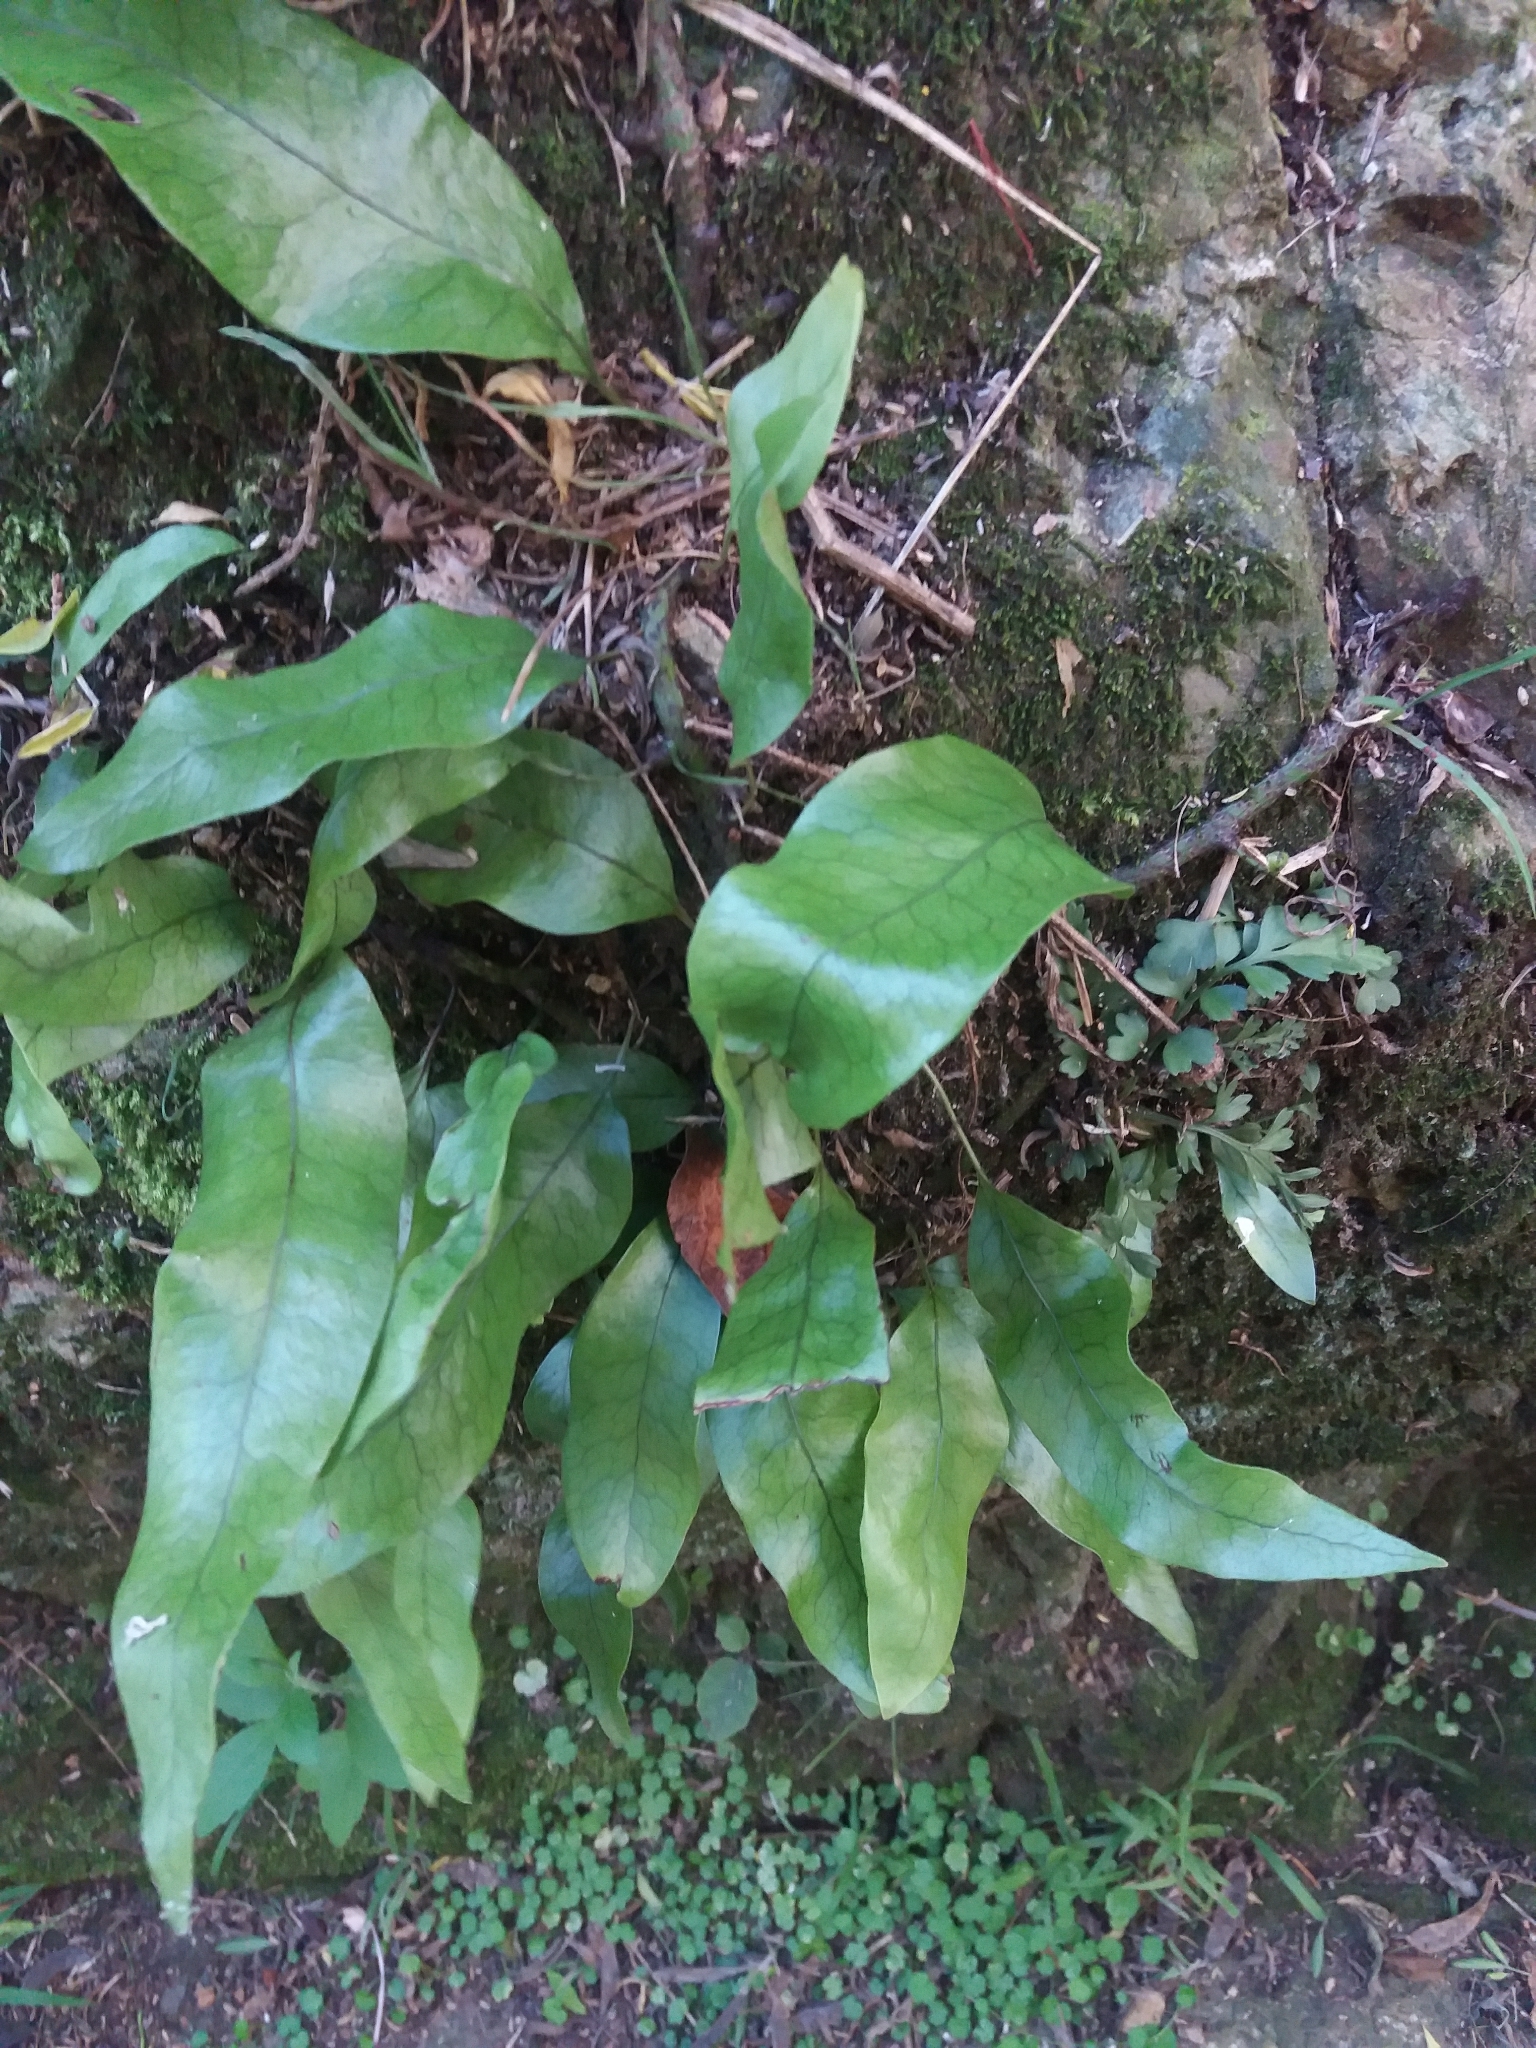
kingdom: Plantae
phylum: Tracheophyta
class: Polypodiopsida
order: Polypodiales
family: Polypodiaceae
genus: Lecanopteris
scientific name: Lecanopteris pustulata
